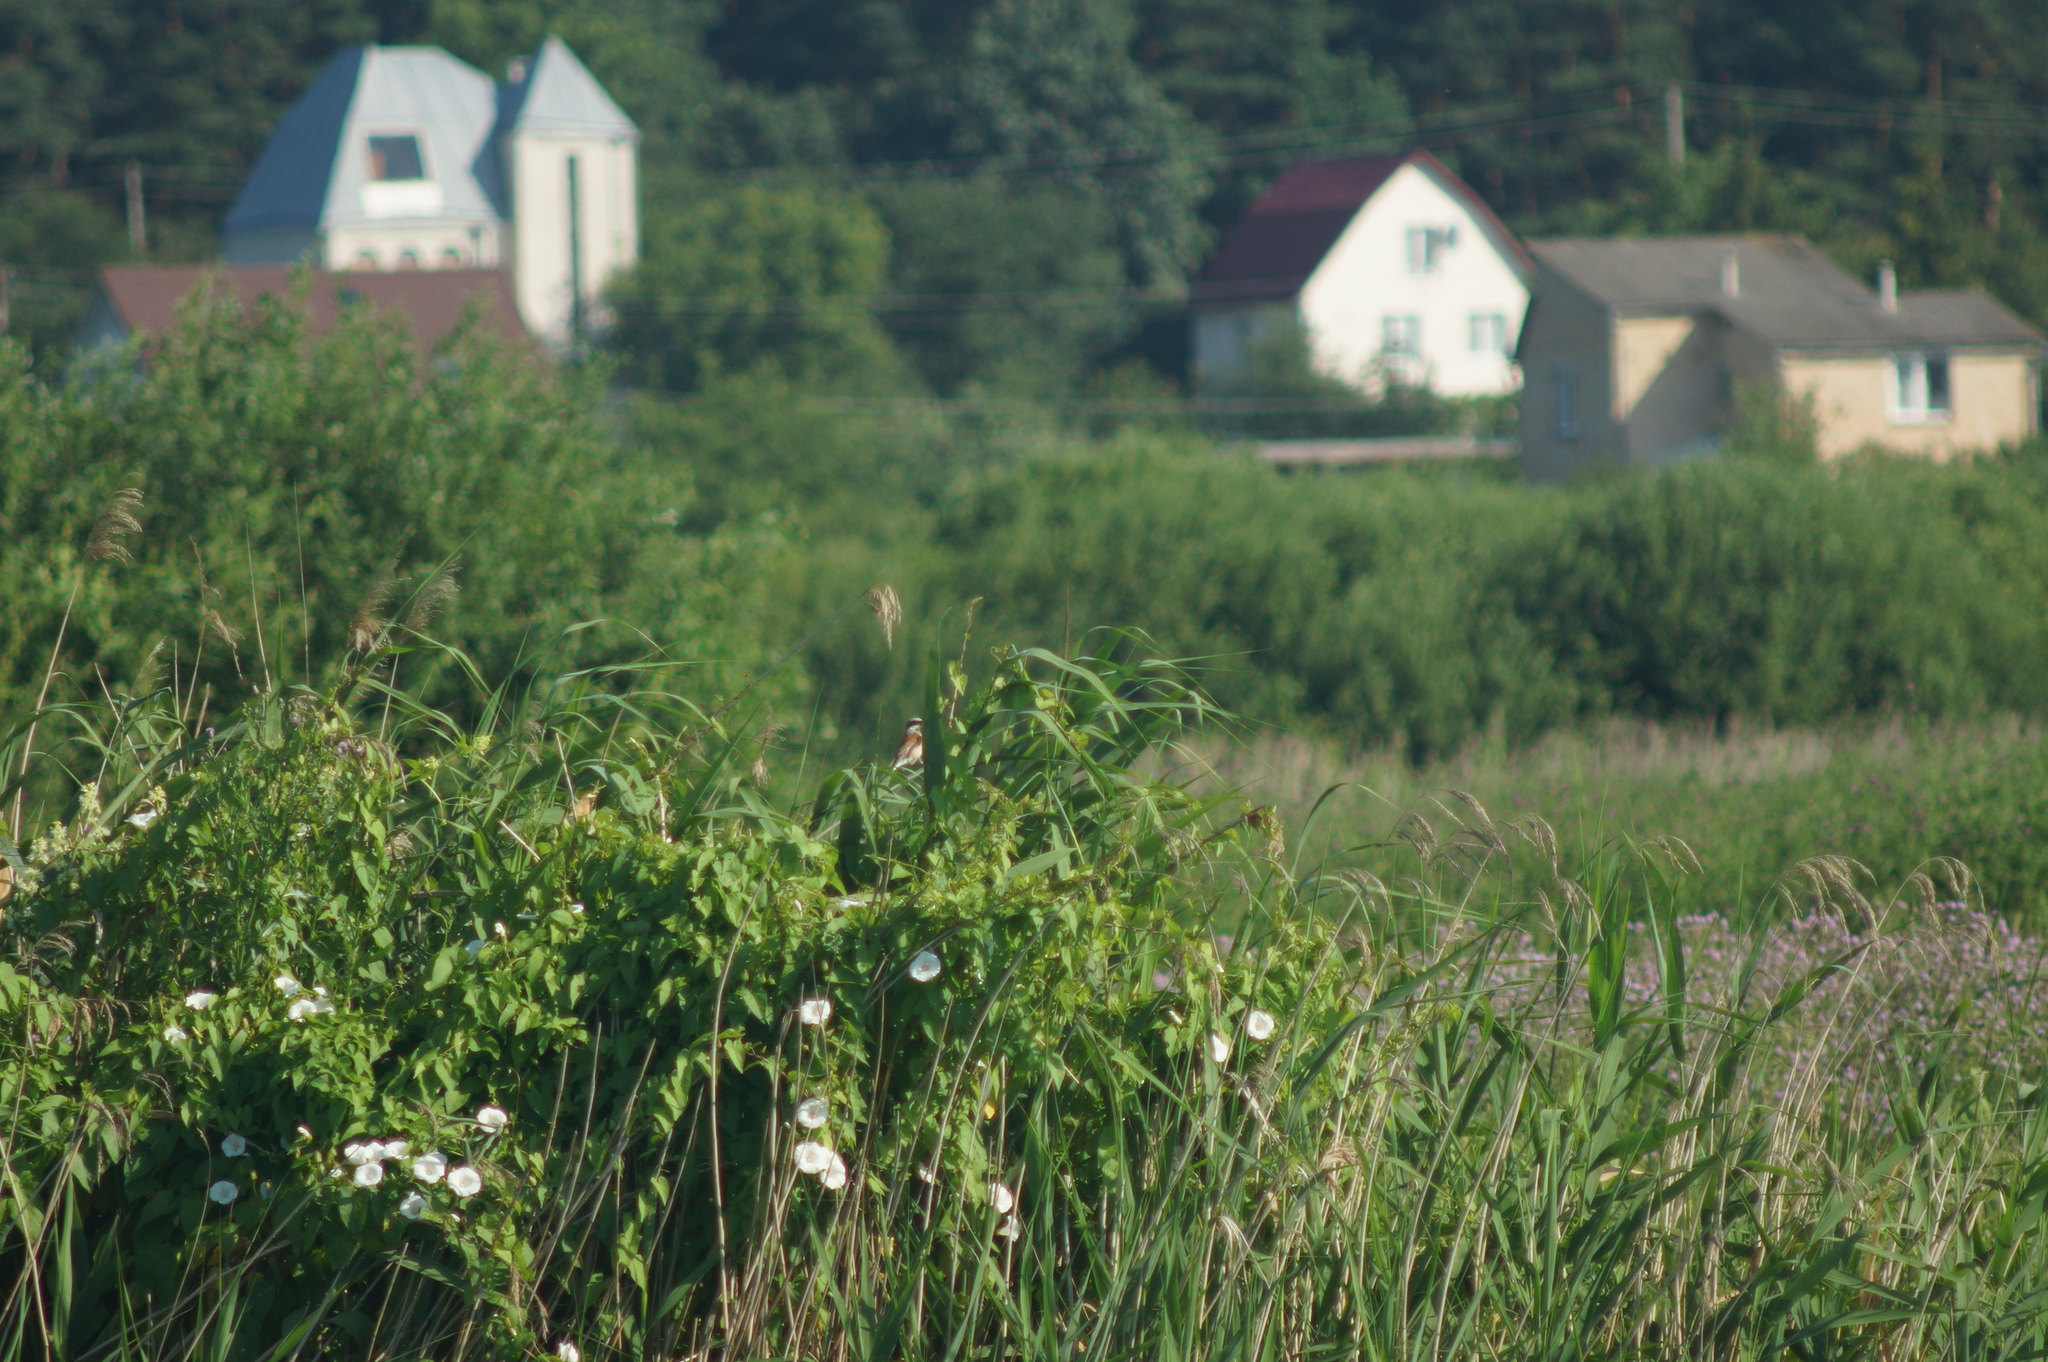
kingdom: Animalia
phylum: Chordata
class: Aves
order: Passeriformes
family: Laniidae
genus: Lanius
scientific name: Lanius collurio
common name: Red-backed shrike
